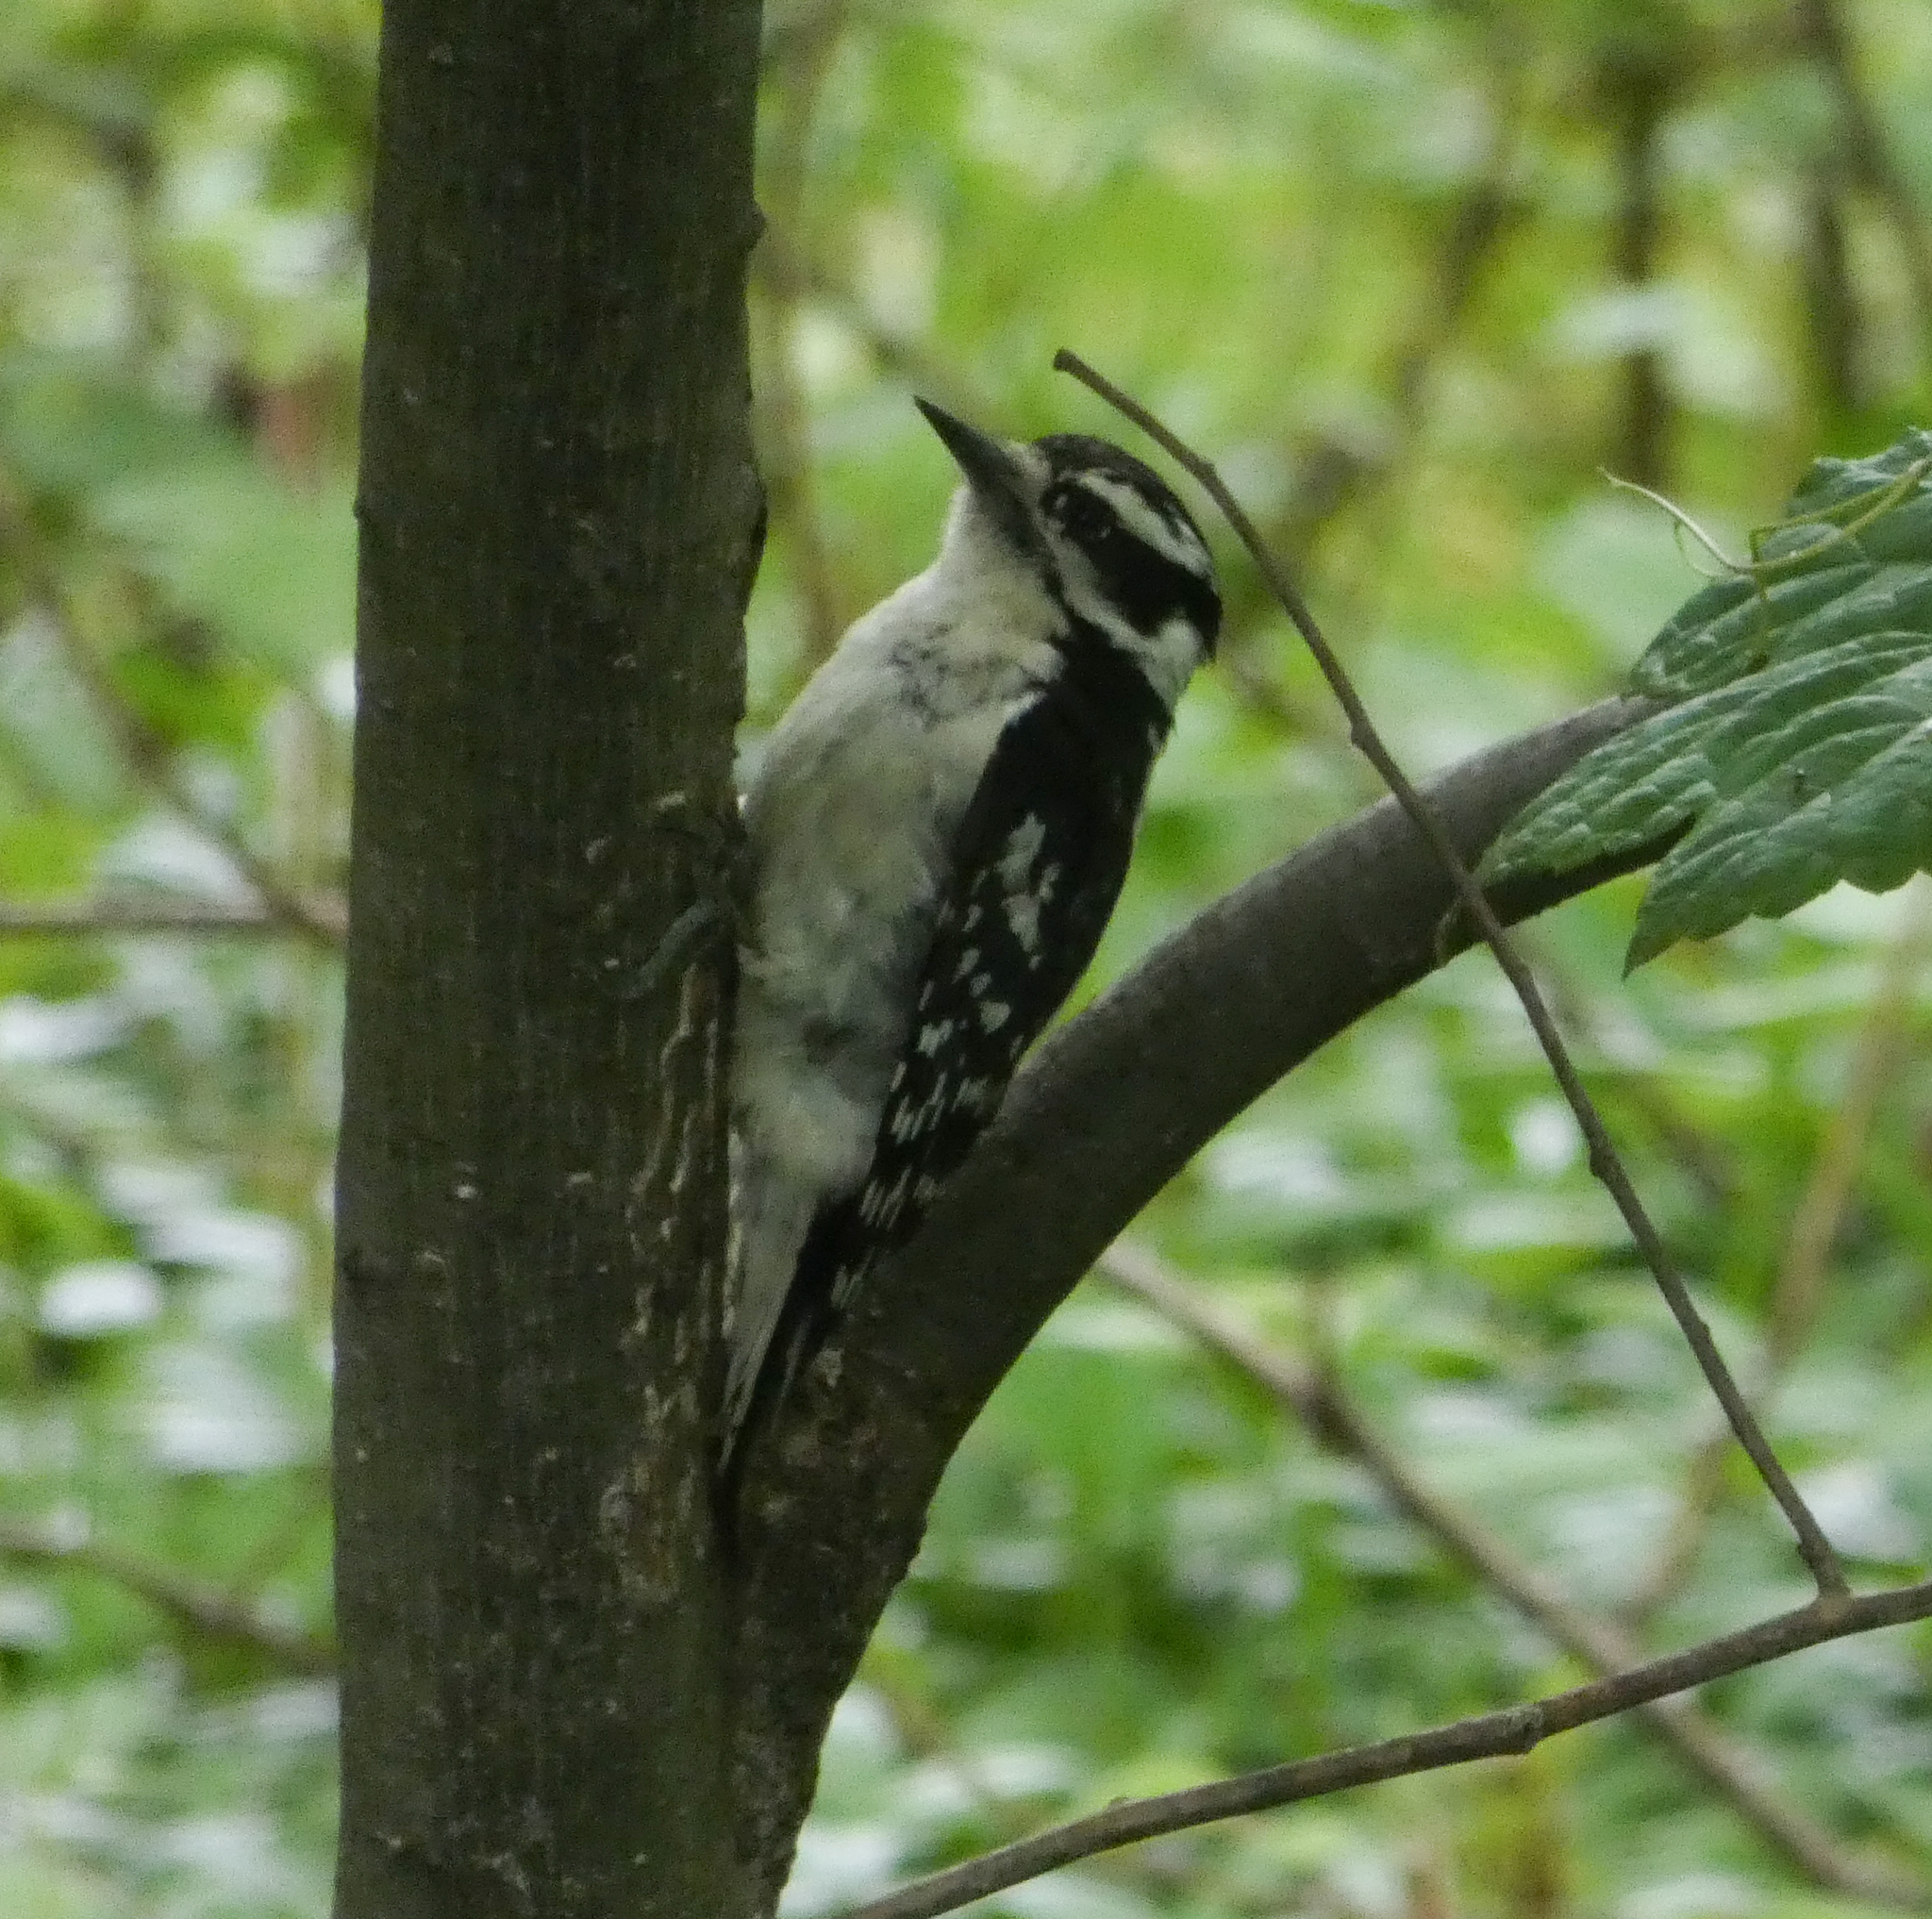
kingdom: Animalia
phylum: Chordata
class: Aves
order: Piciformes
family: Picidae
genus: Dryobates
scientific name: Dryobates pubescens
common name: Downy woodpecker
